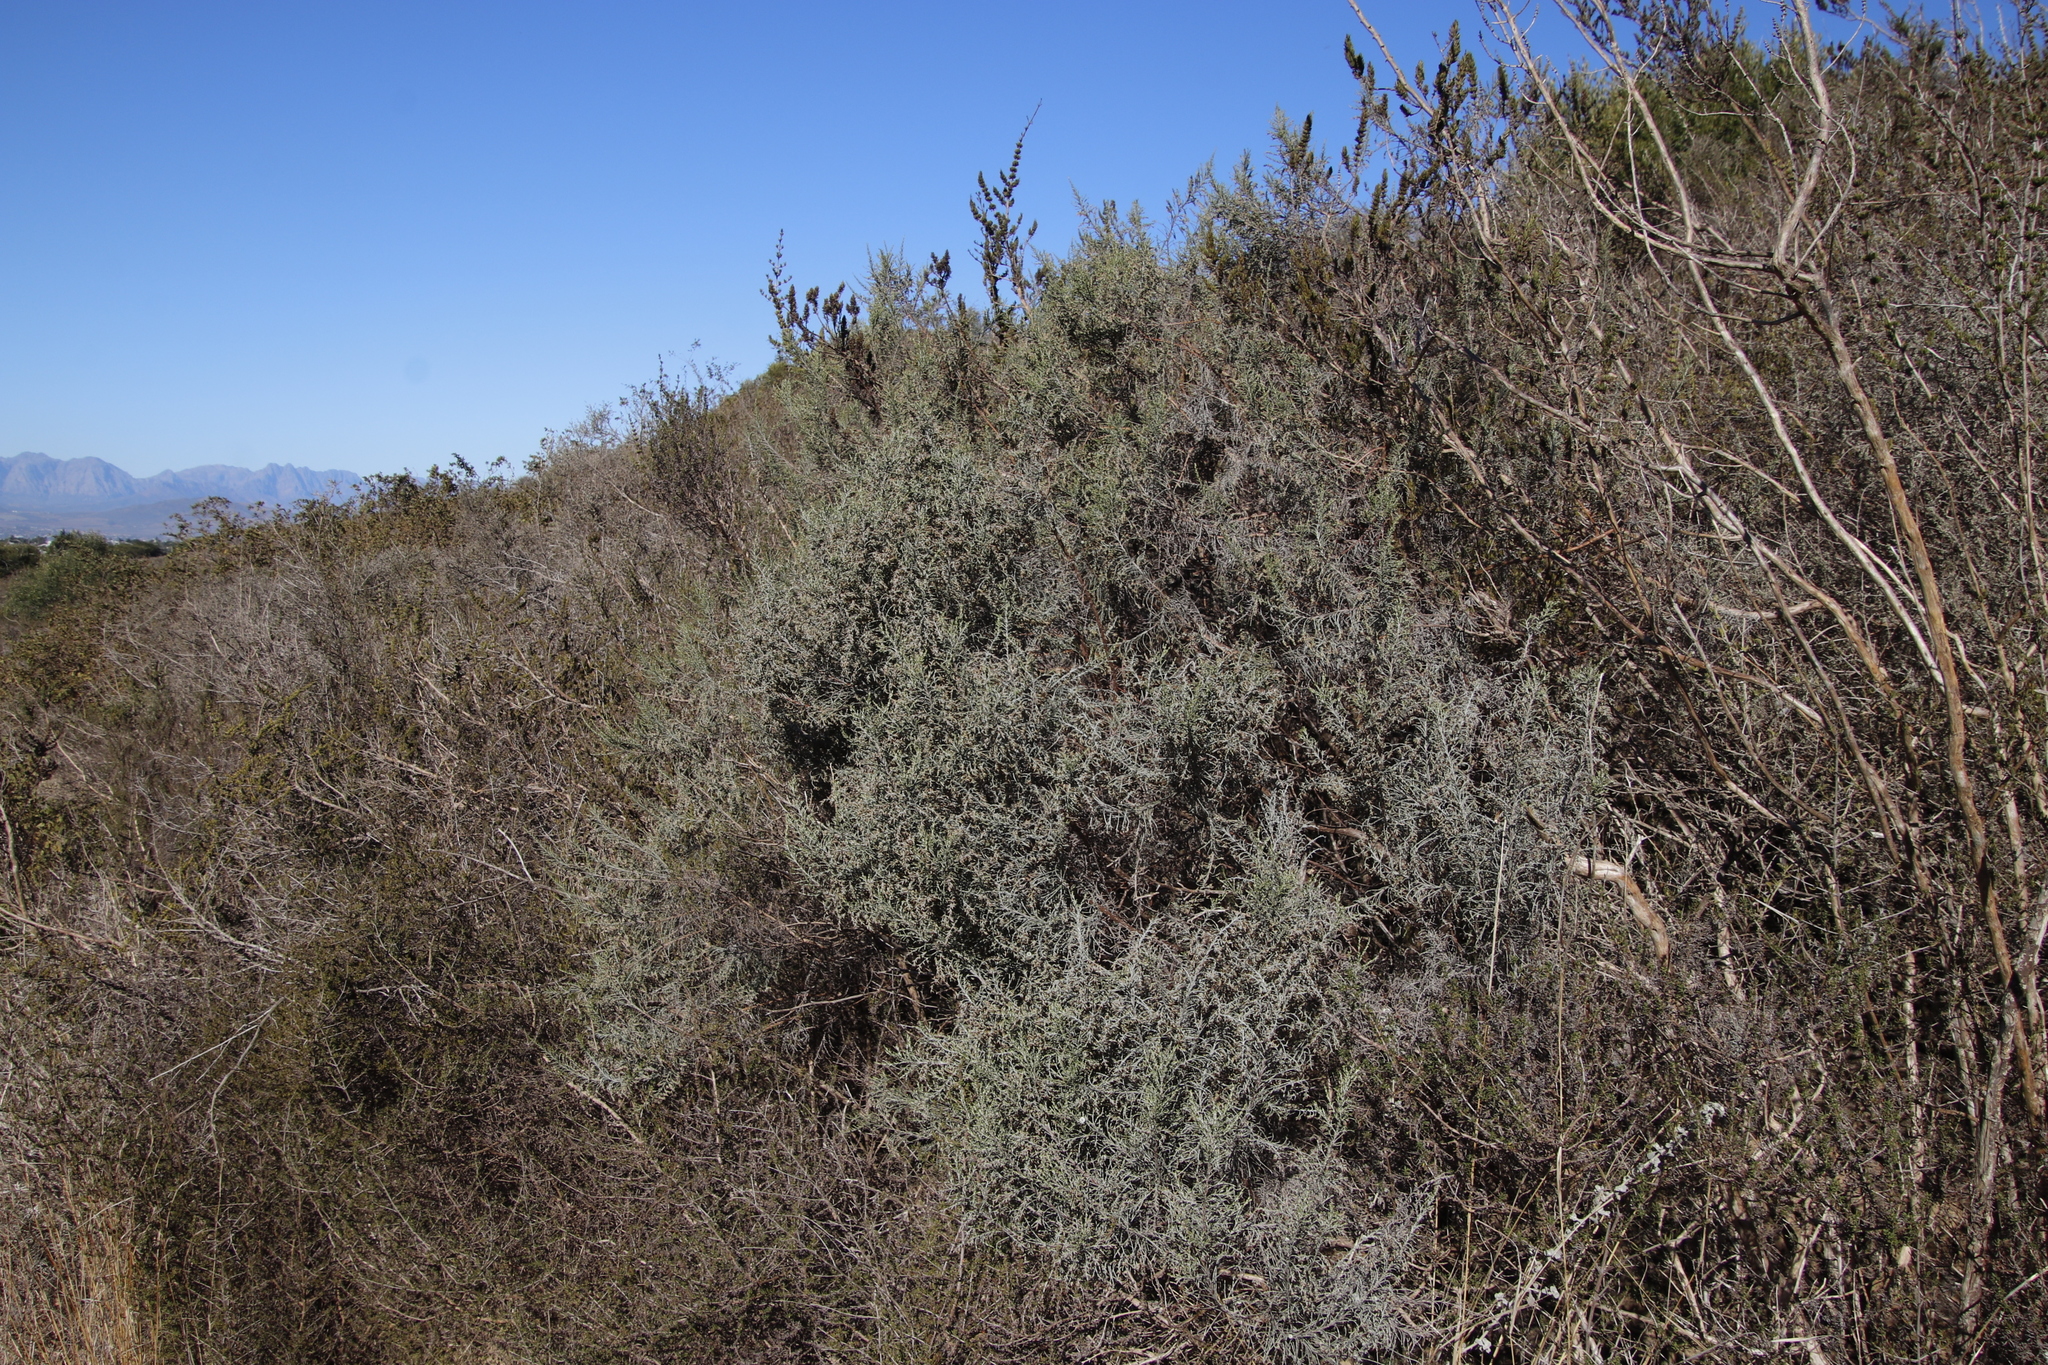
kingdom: Plantae
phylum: Tracheophyta
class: Magnoliopsida
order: Asterales
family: Asteraceae
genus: Dicerothamnus
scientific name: Dicerothamnus rhinocerotis
